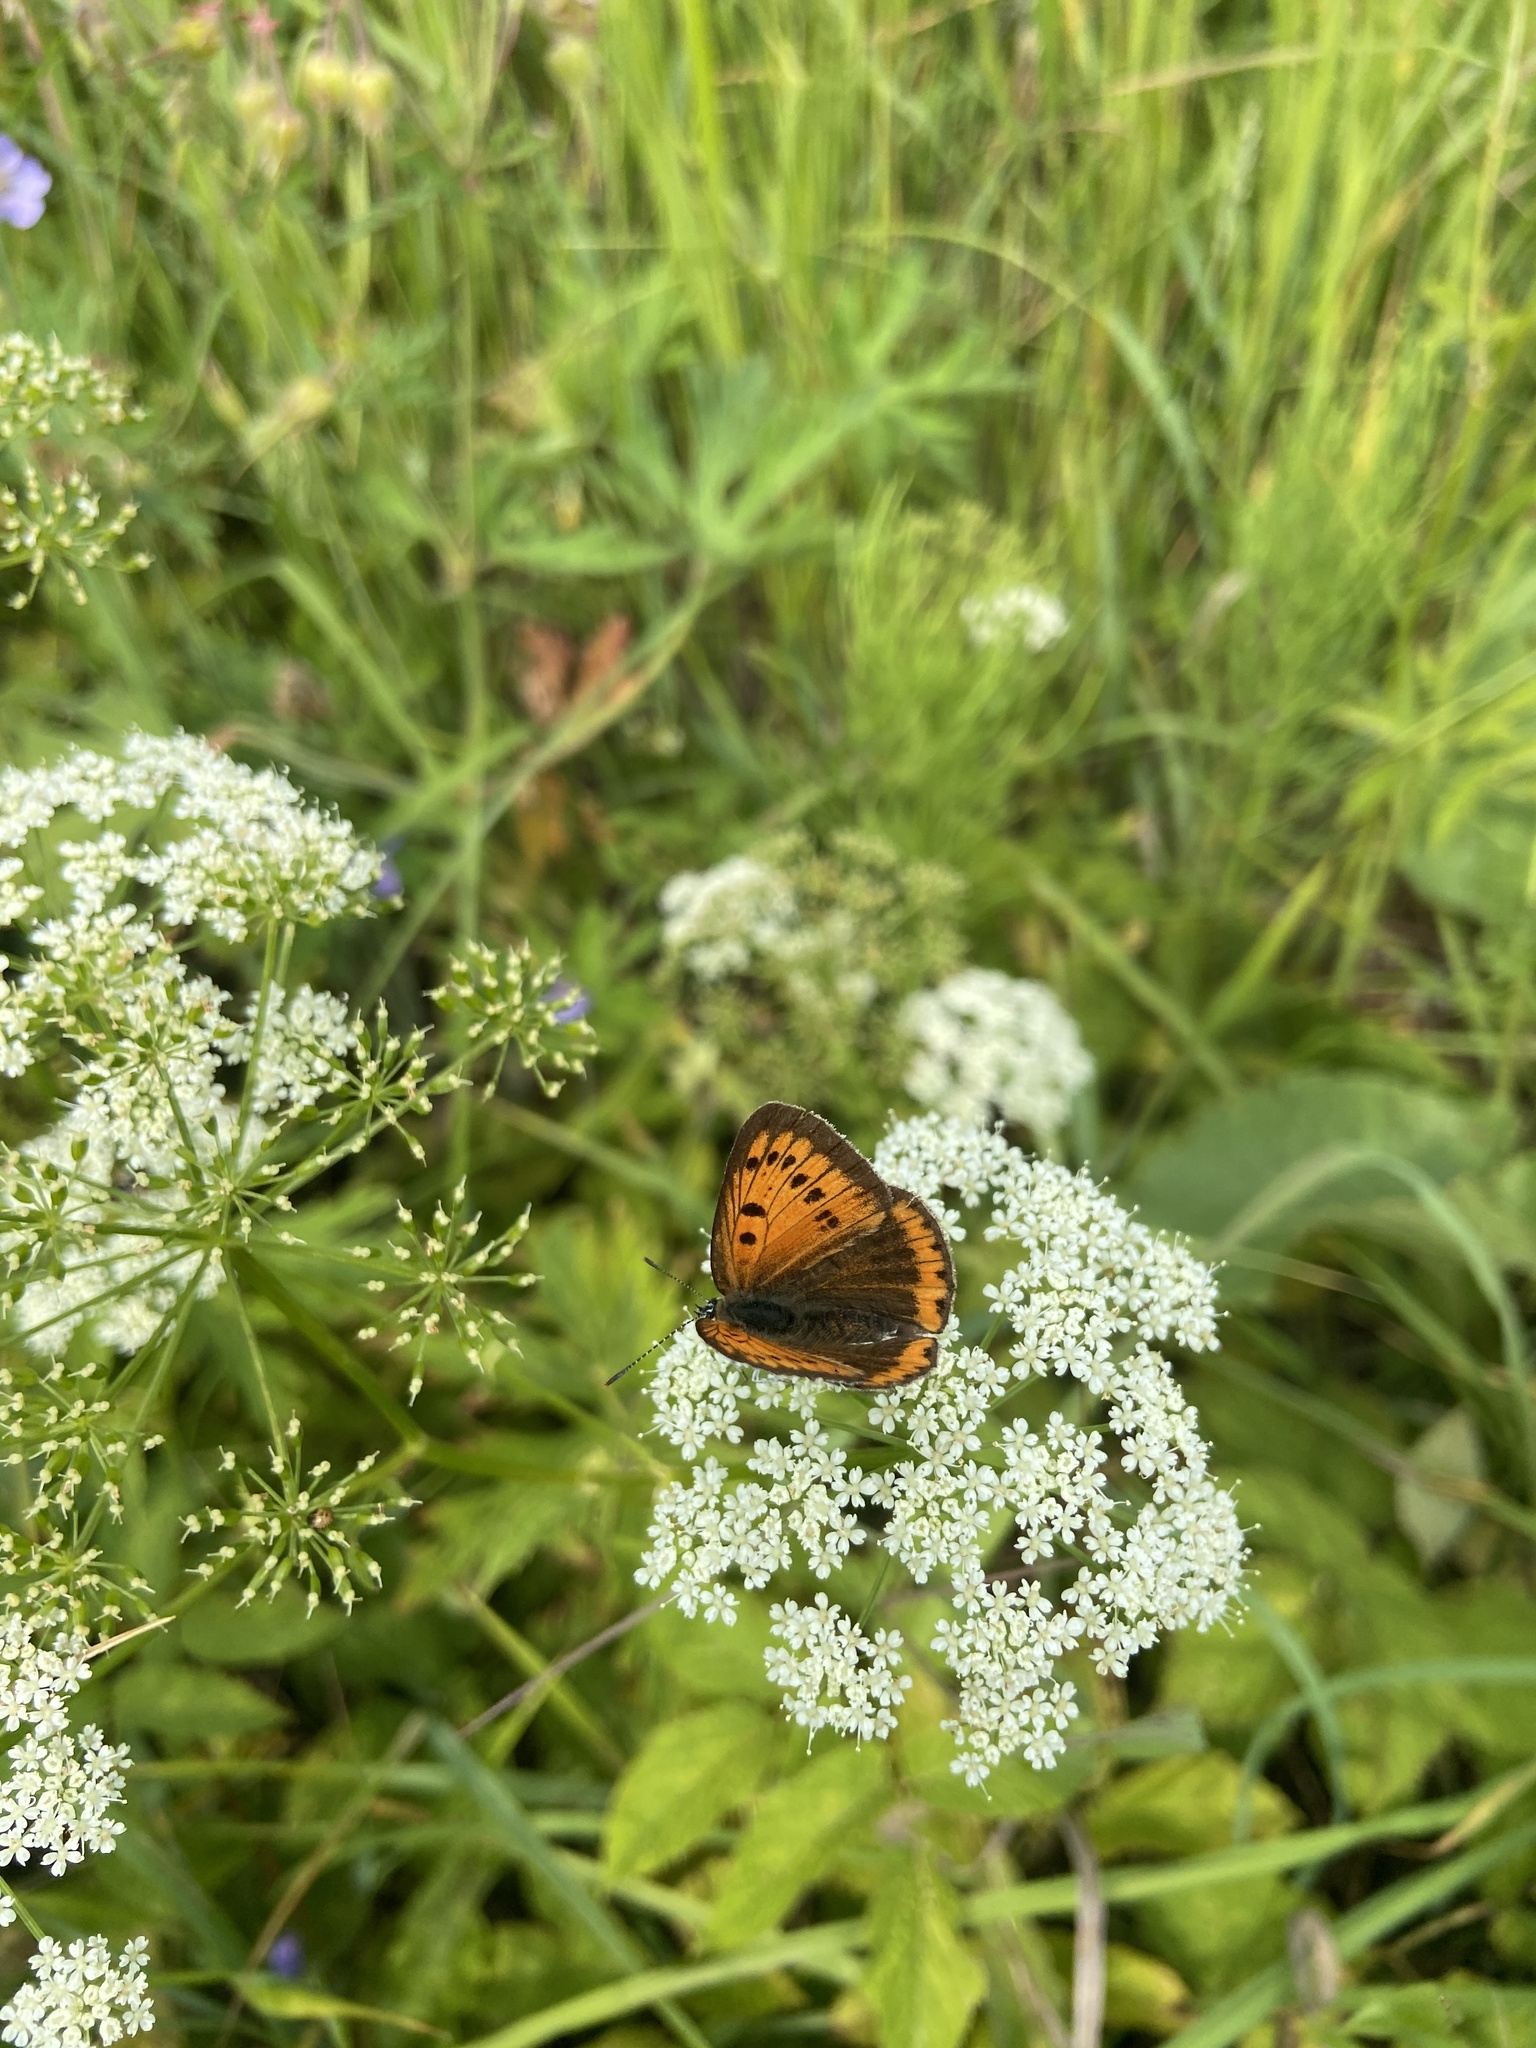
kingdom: Animalia
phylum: Arthropoda
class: Insecta
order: Lepidoptera
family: Lycaenidae
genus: Lycaena
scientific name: Lycaena dispar
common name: Large copper
